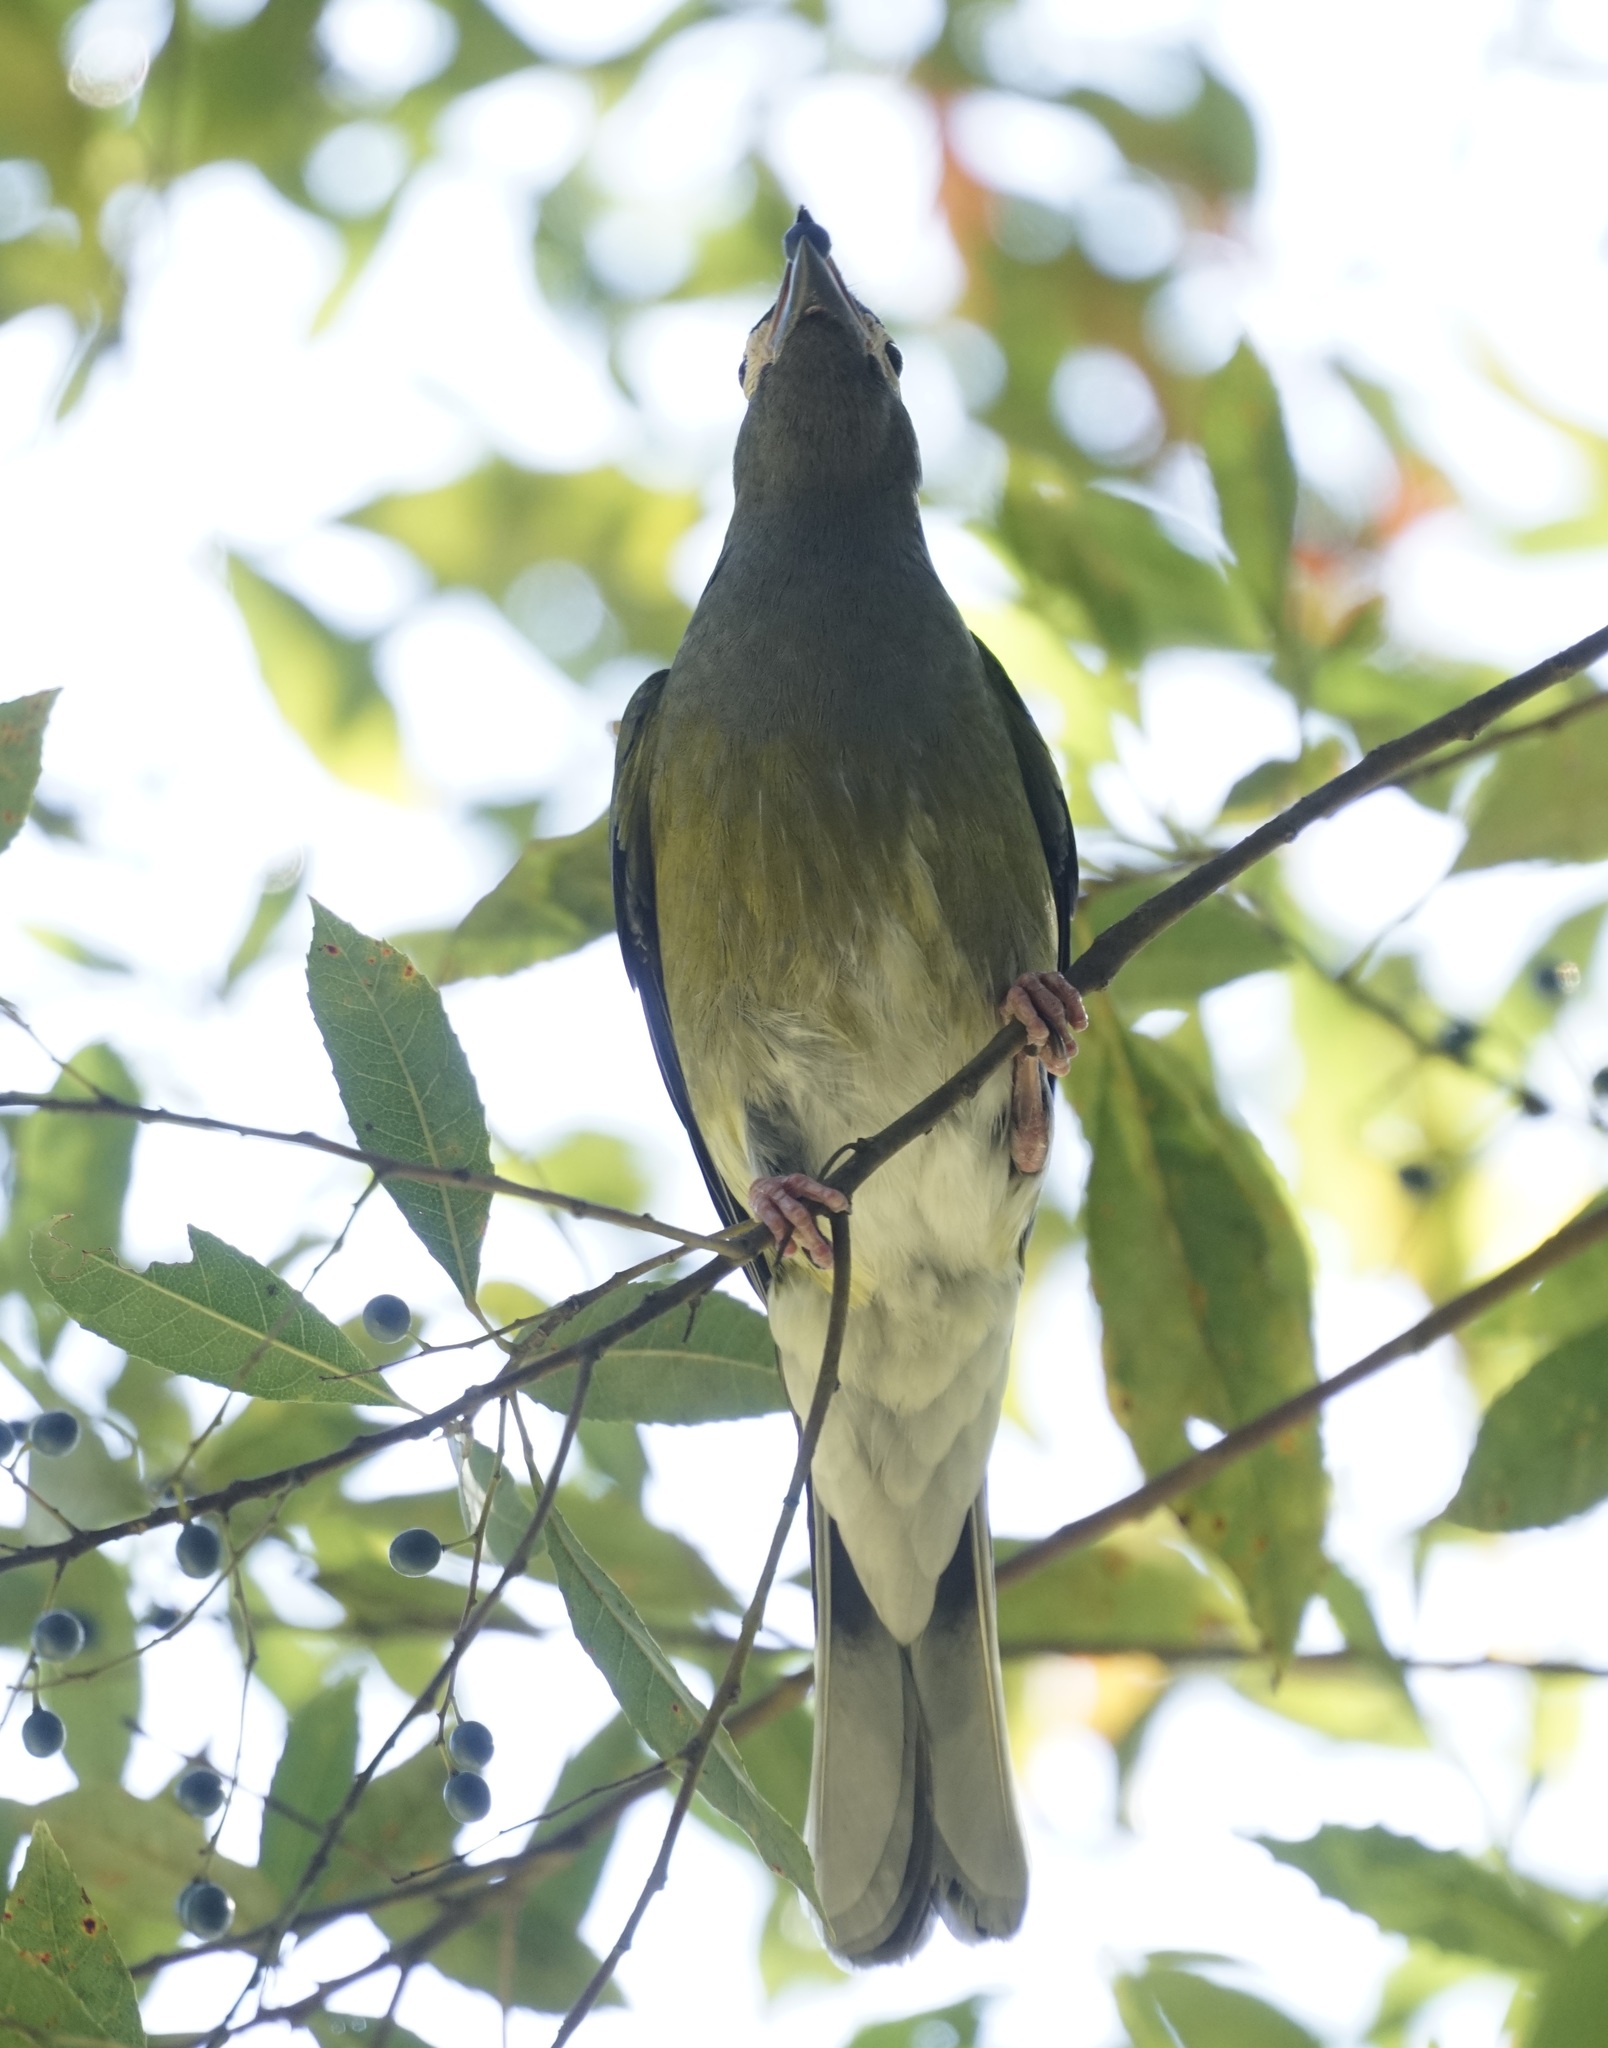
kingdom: Animalia
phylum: Chordata
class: Aves
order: Passeriformes
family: Oriolidae
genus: Sphecotheres
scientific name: Sphecotheres vieilloti
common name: Australasian figbird
